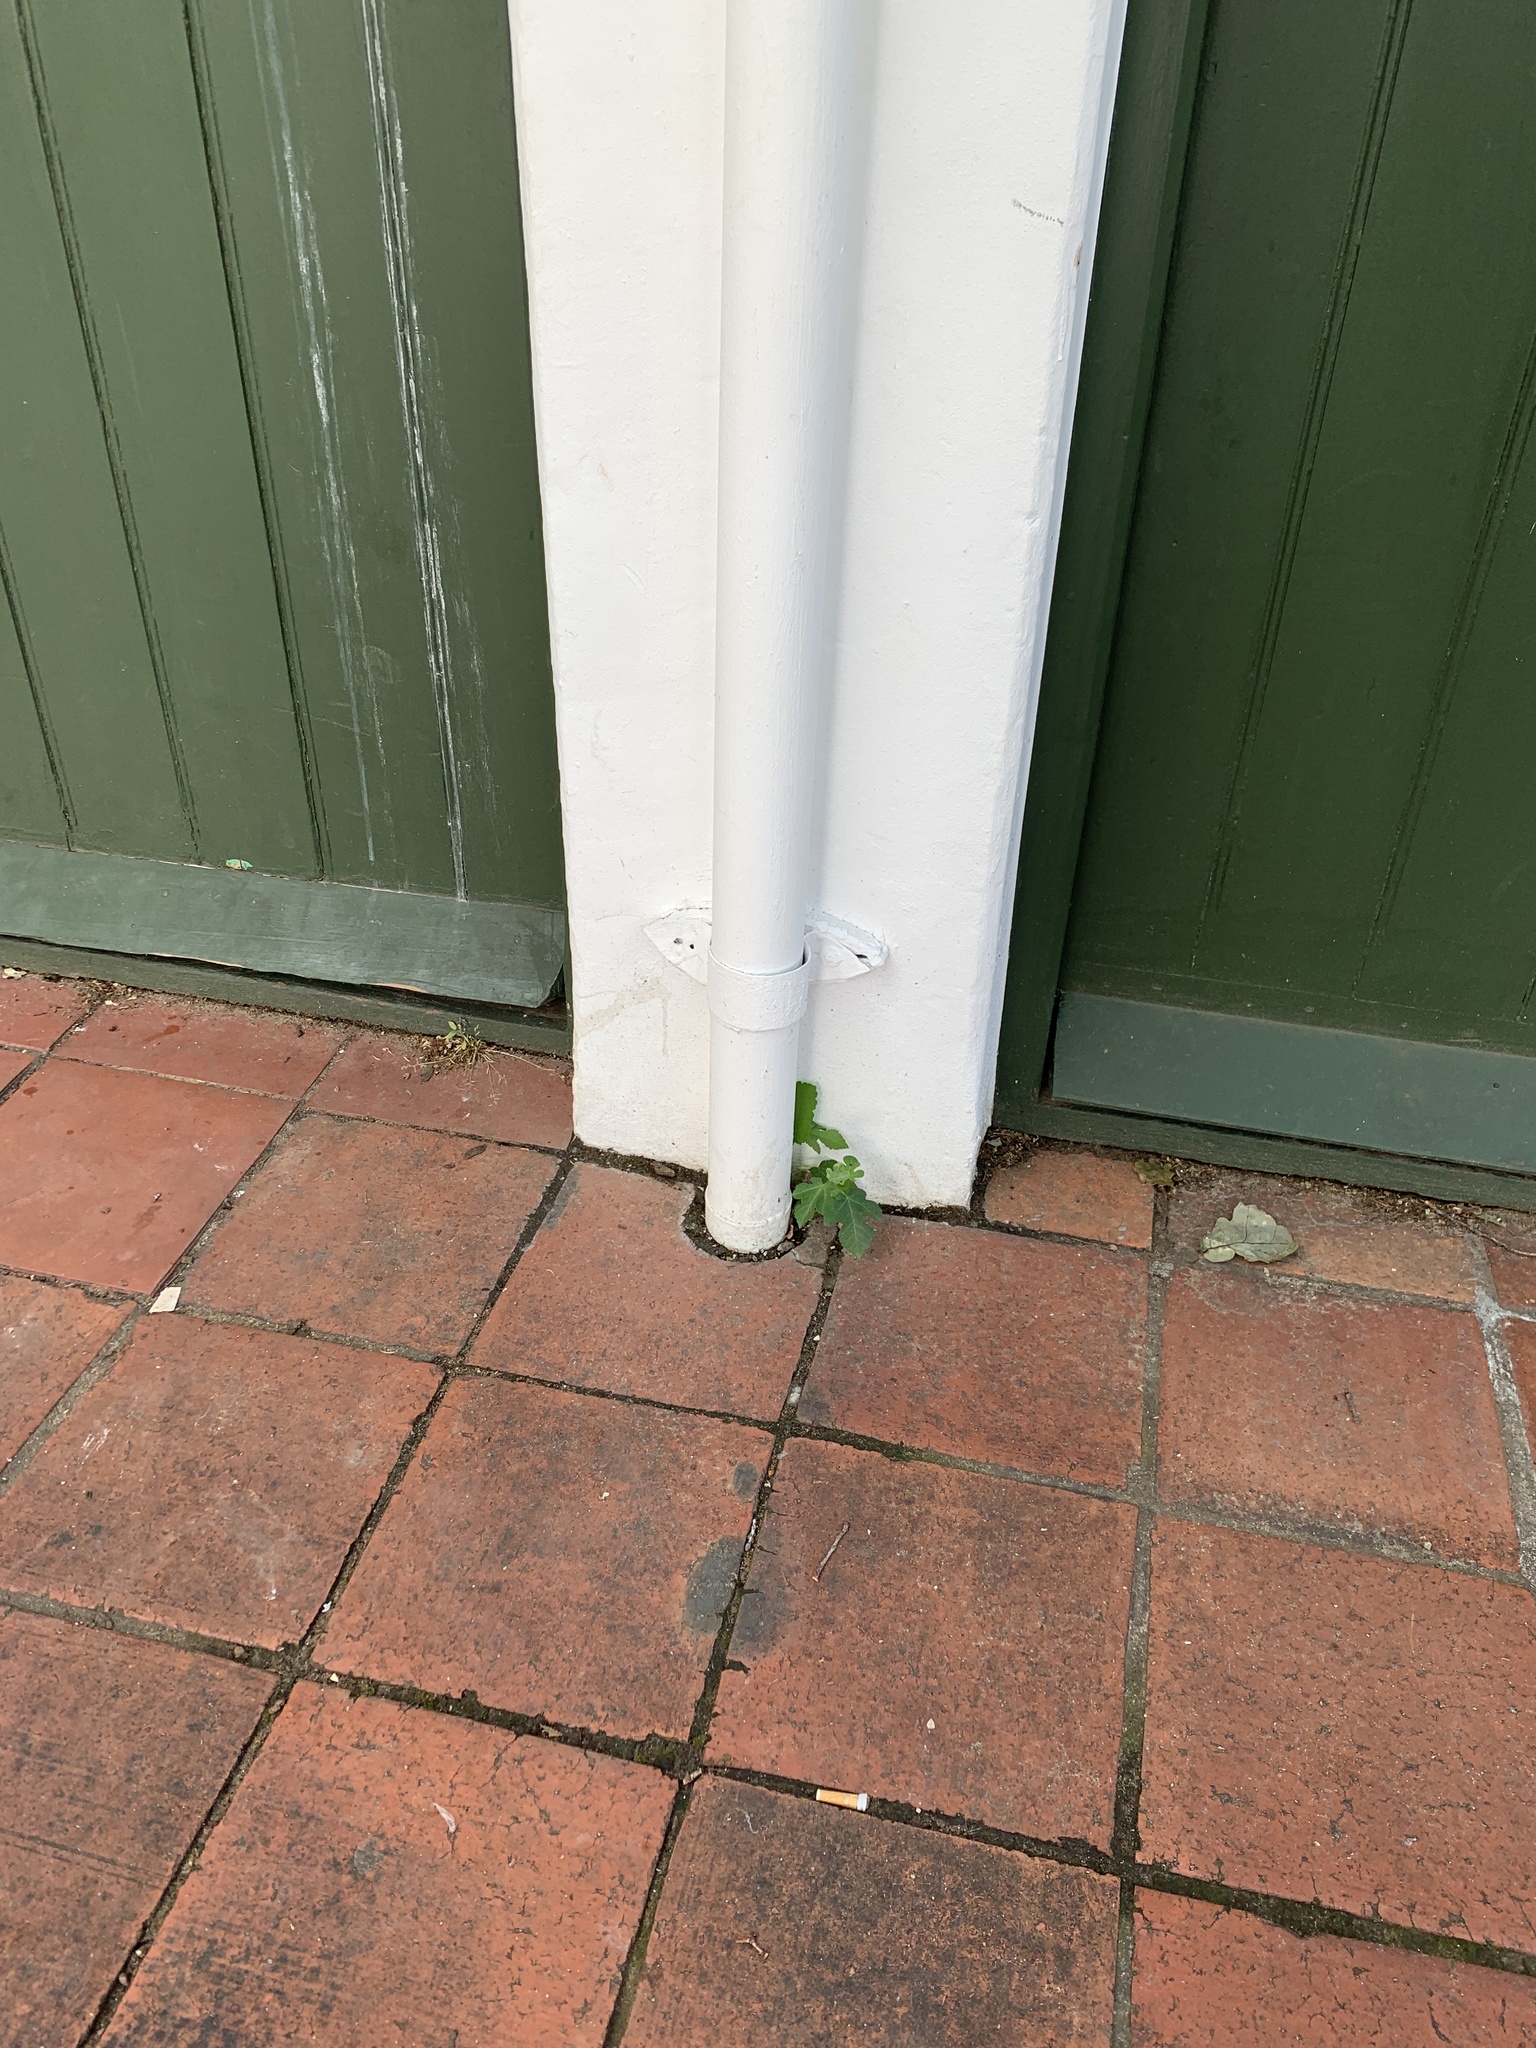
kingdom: Plantae
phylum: Tracheophyta
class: Magnoliopsida
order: Rosales
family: Moraceae
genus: Ficus
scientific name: Ficus carica
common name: Fig
